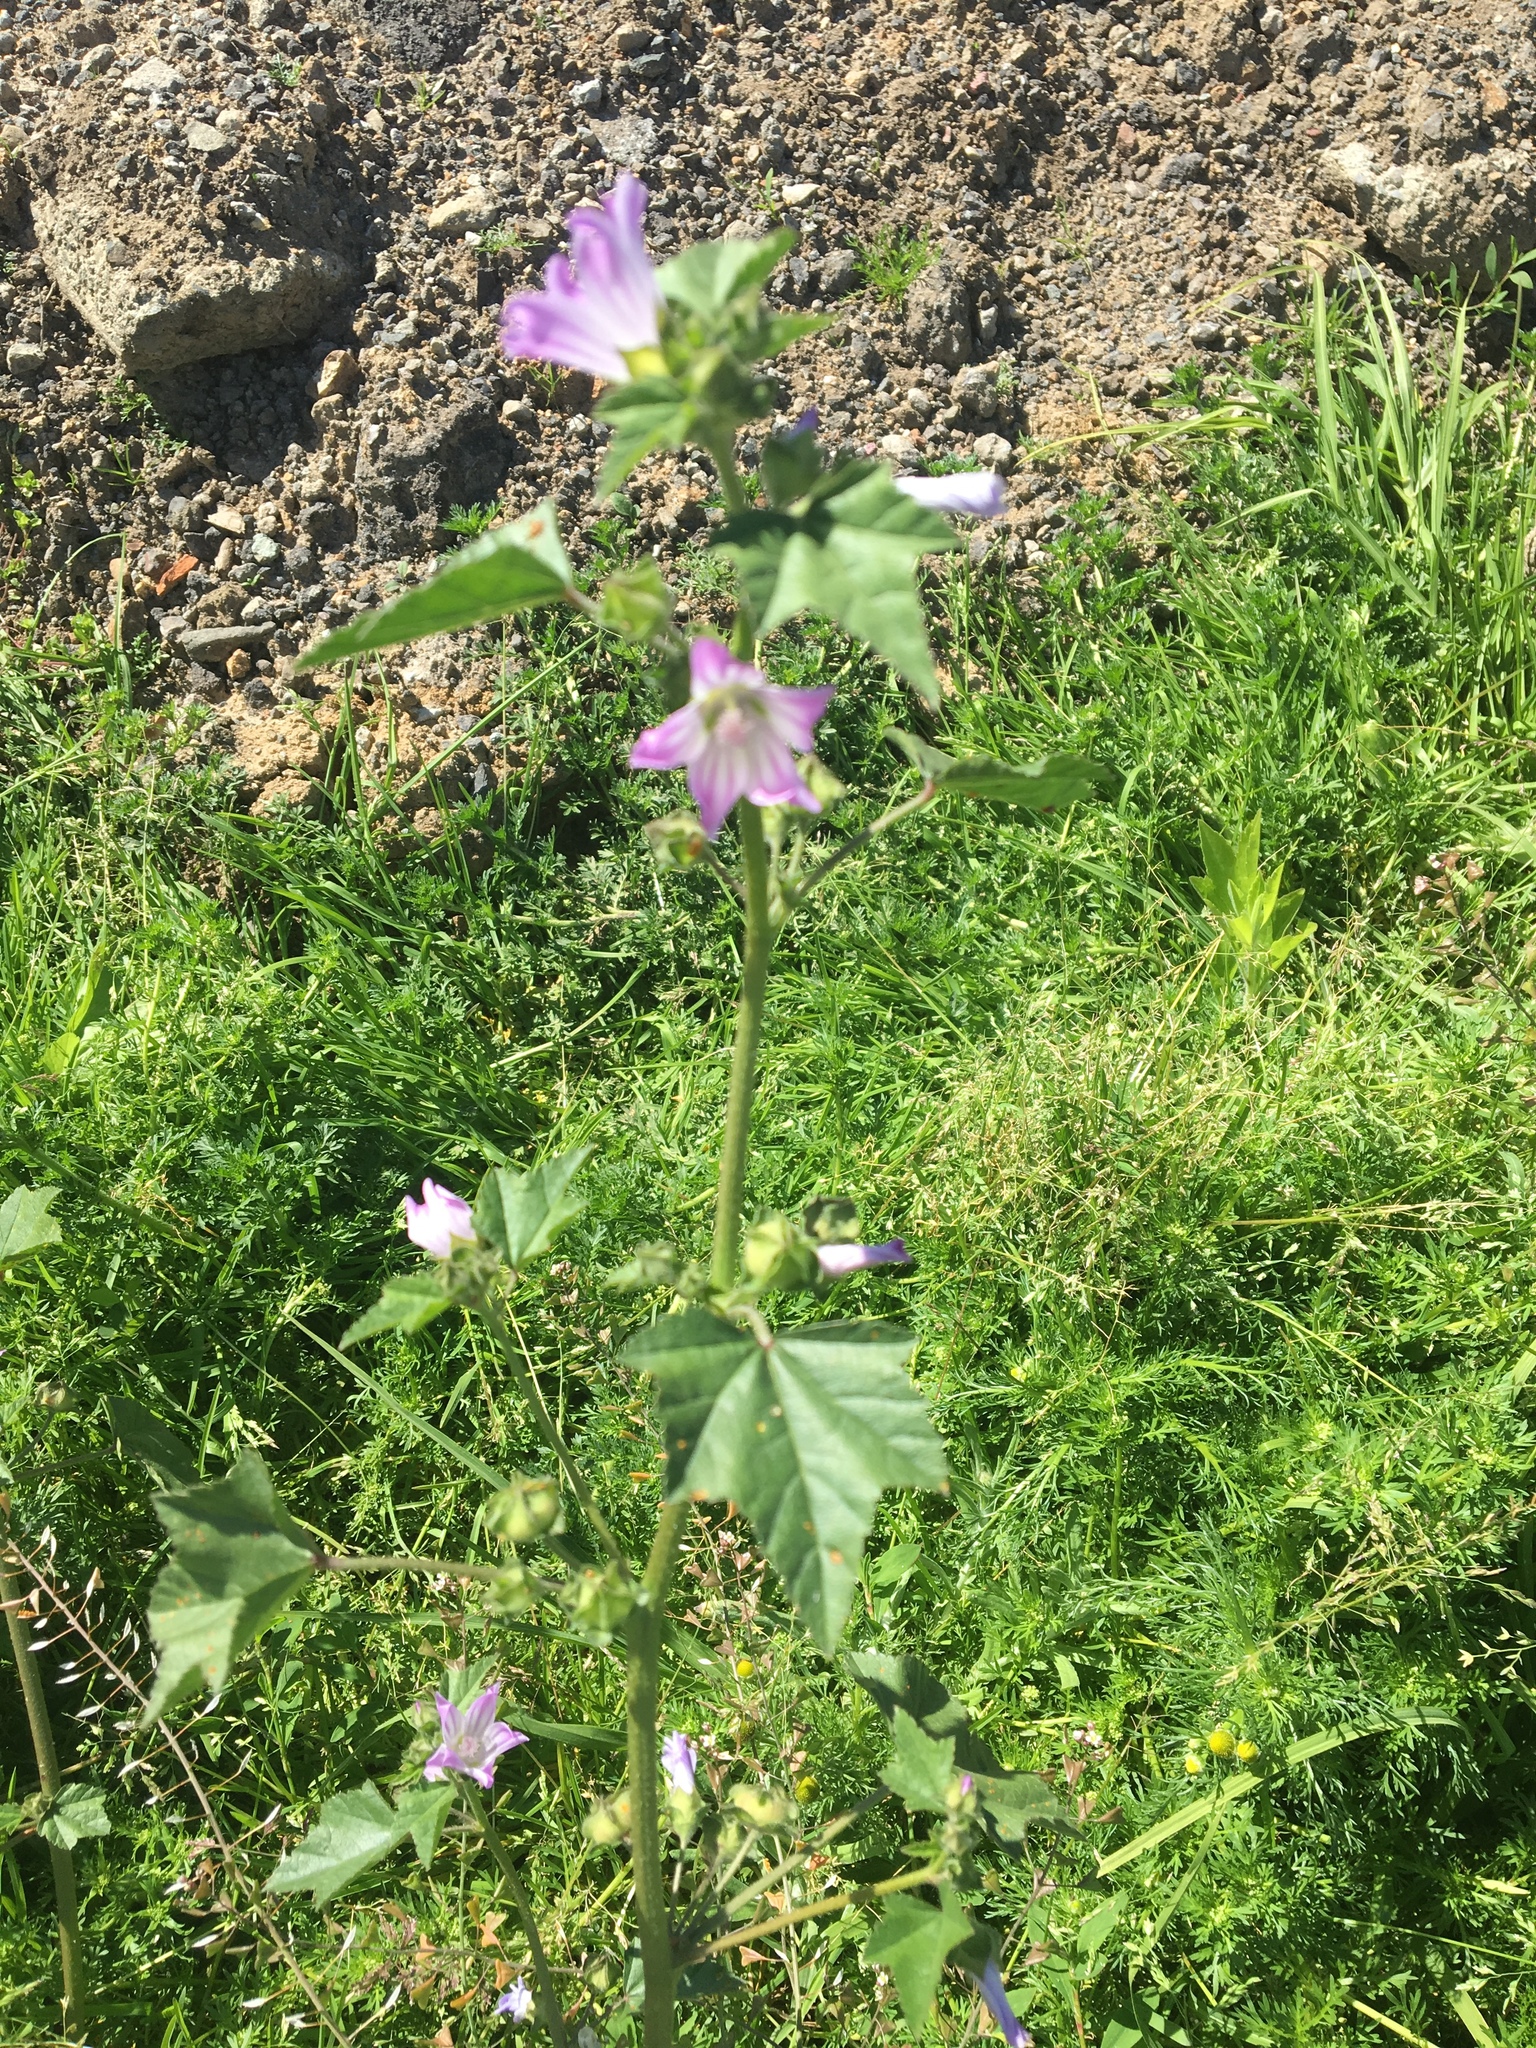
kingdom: Plantae
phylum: Tracheophyta
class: Magnoliopsida
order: Malvales
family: Malvaceae
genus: Malva
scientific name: Malva multiflora
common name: Cheeseweed
